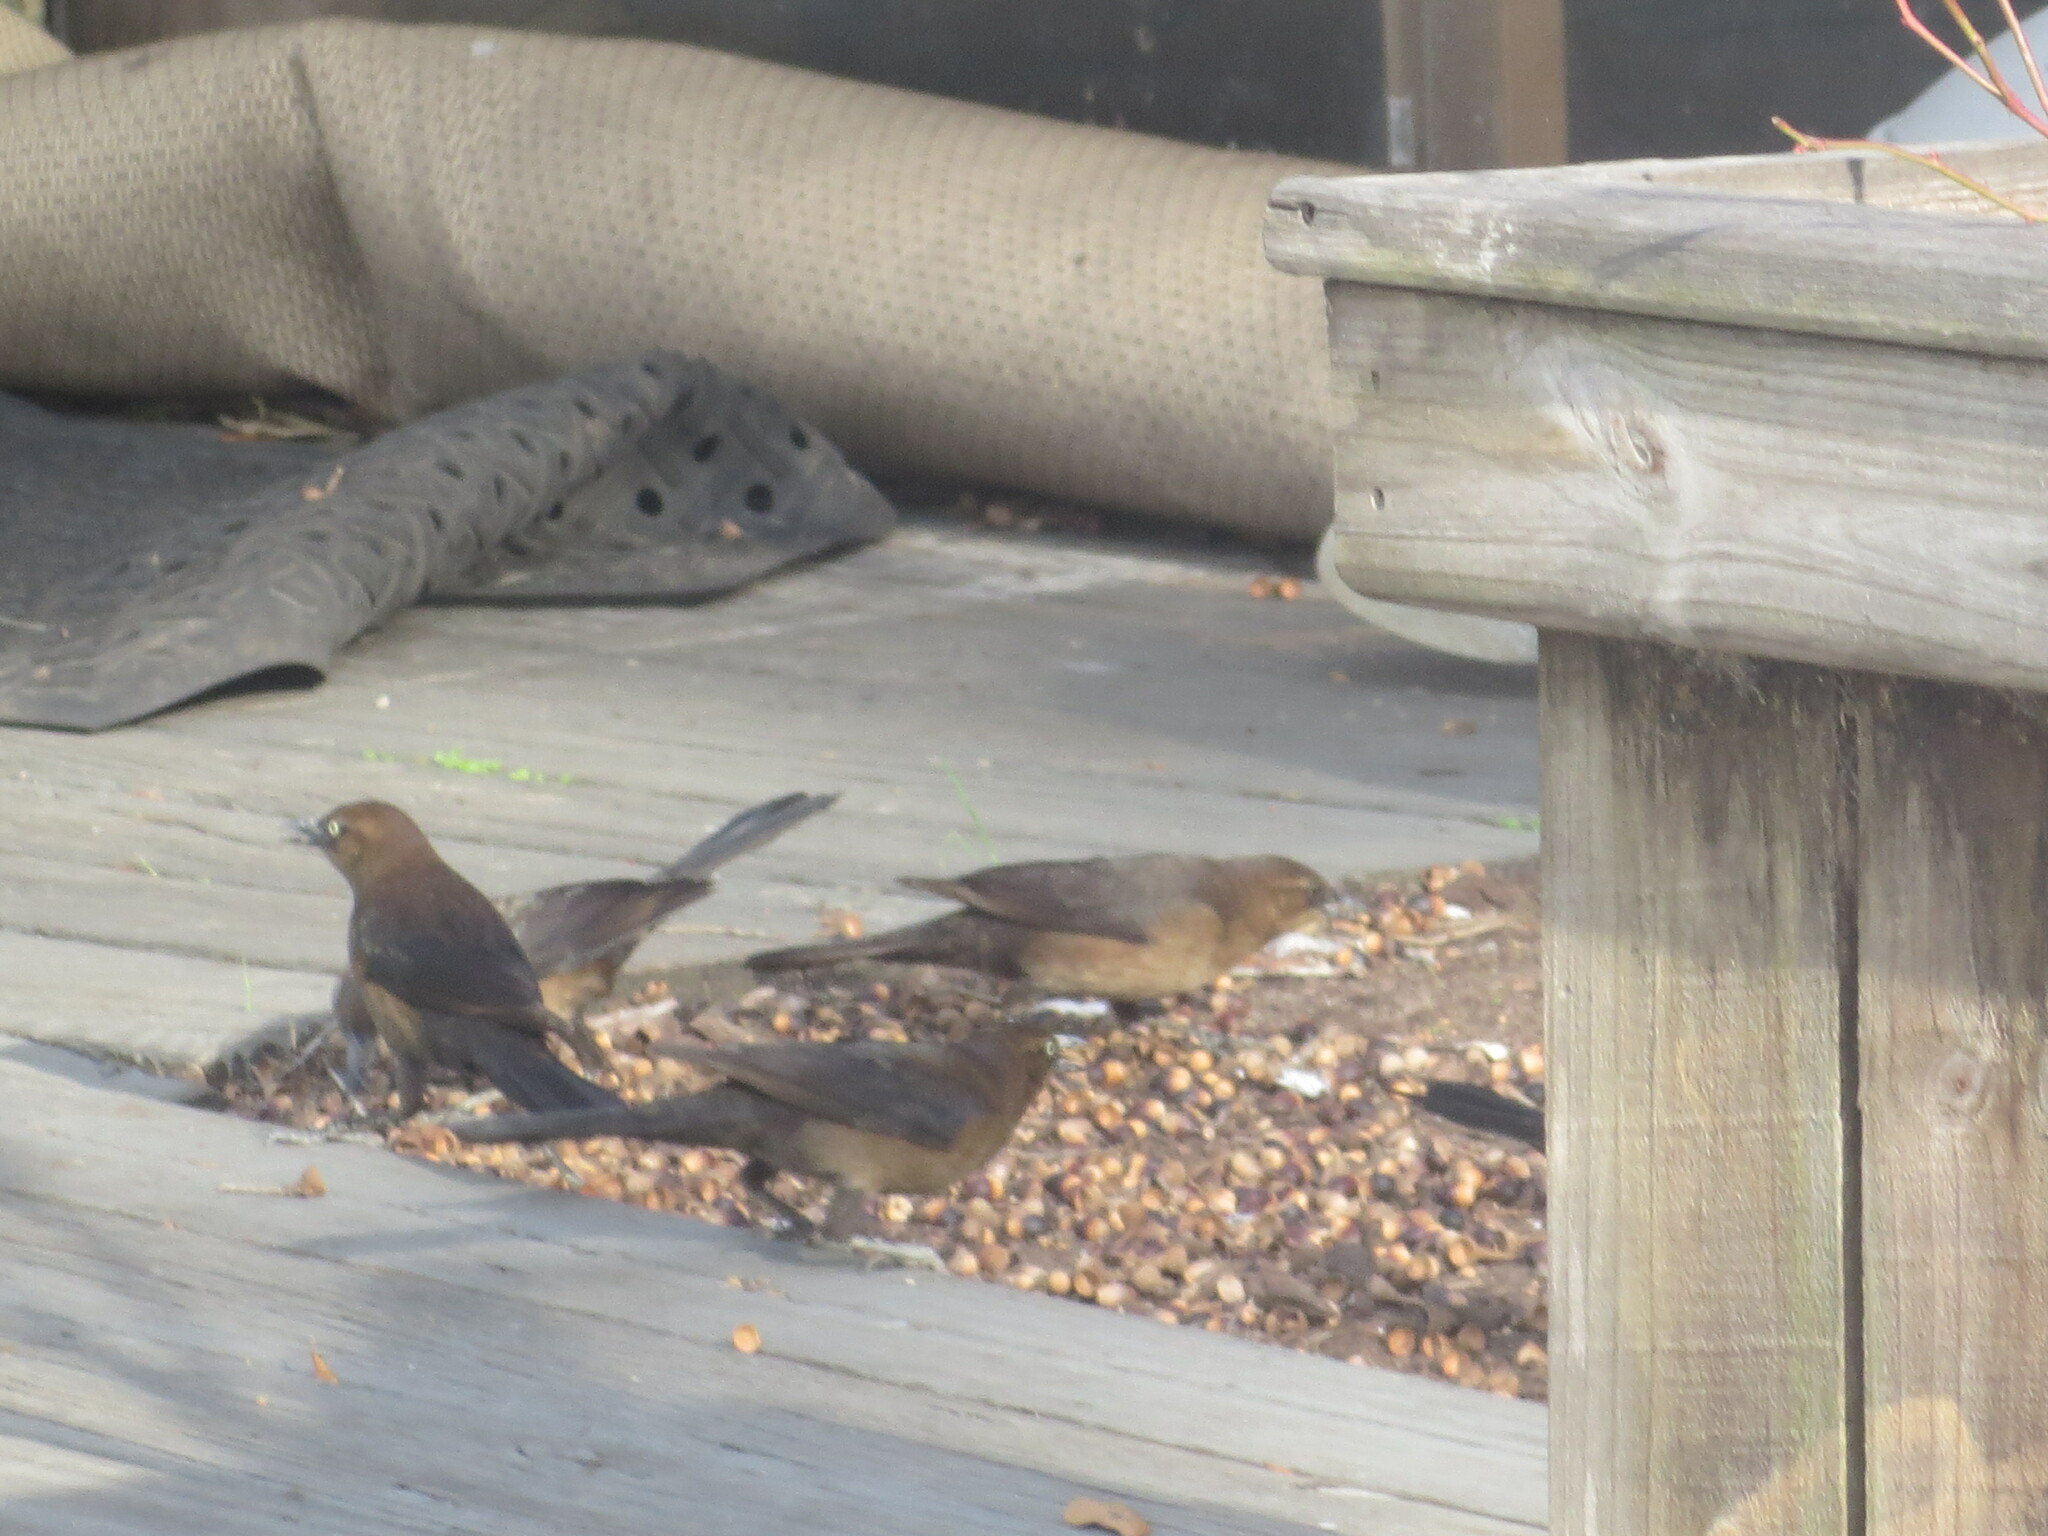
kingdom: Animalia
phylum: Chordata
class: Aves
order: Passeriformes
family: Icteridae
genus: Quiscalus
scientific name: Quiscalus major
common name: Boat-tailed grackle
